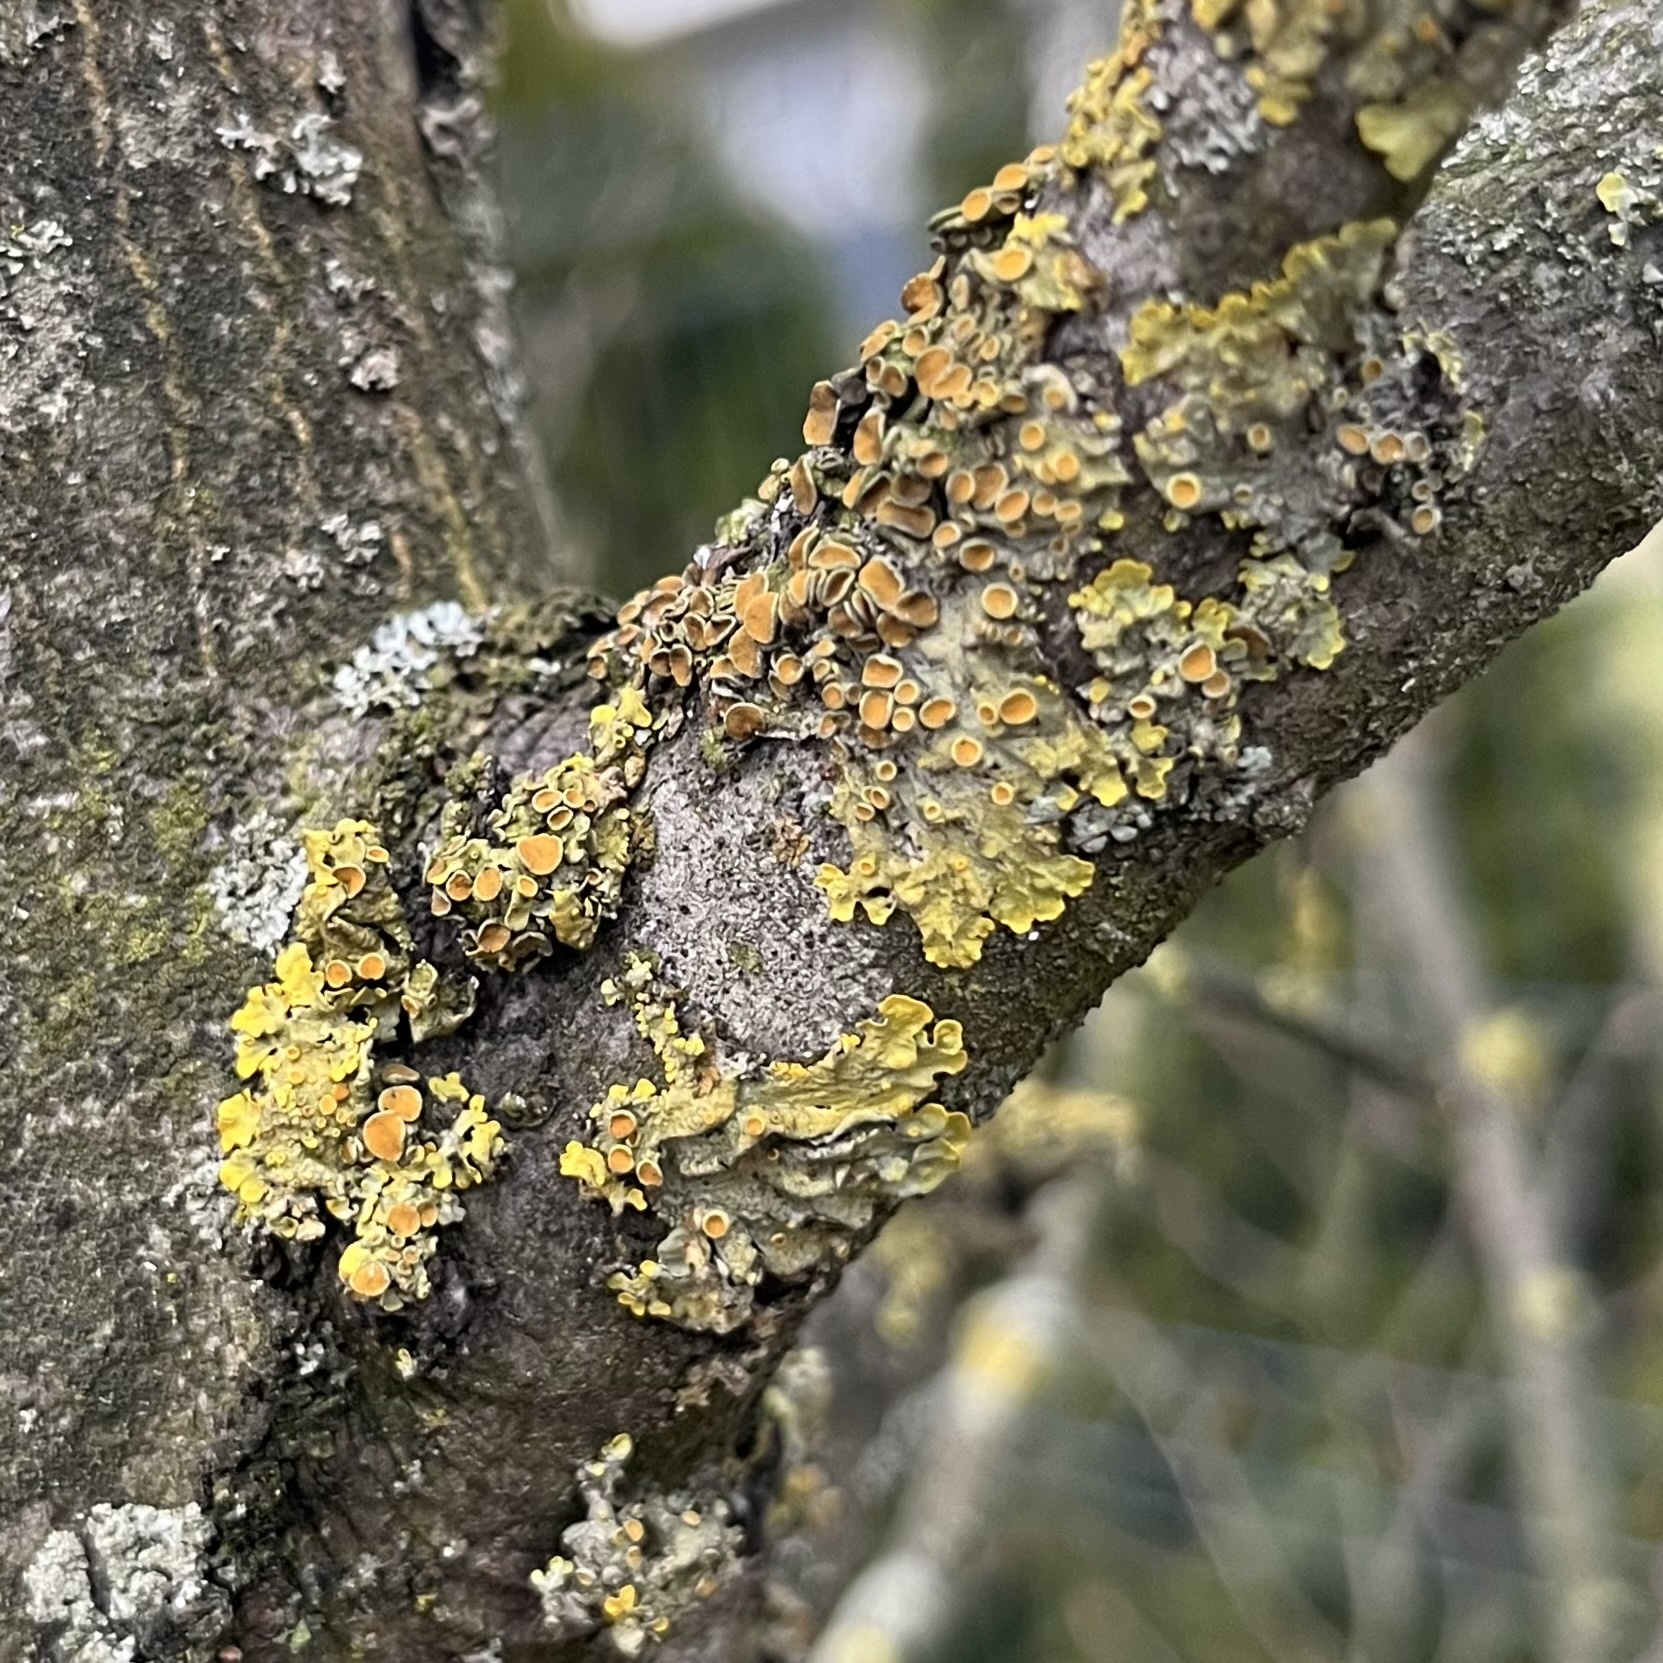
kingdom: Fungi
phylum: Ascomycota
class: Lecanoromycetes
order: Teloschistales
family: Teloschistaceae
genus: Xanthoria
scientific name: Xanthoria parietina
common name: Common orange lichen
